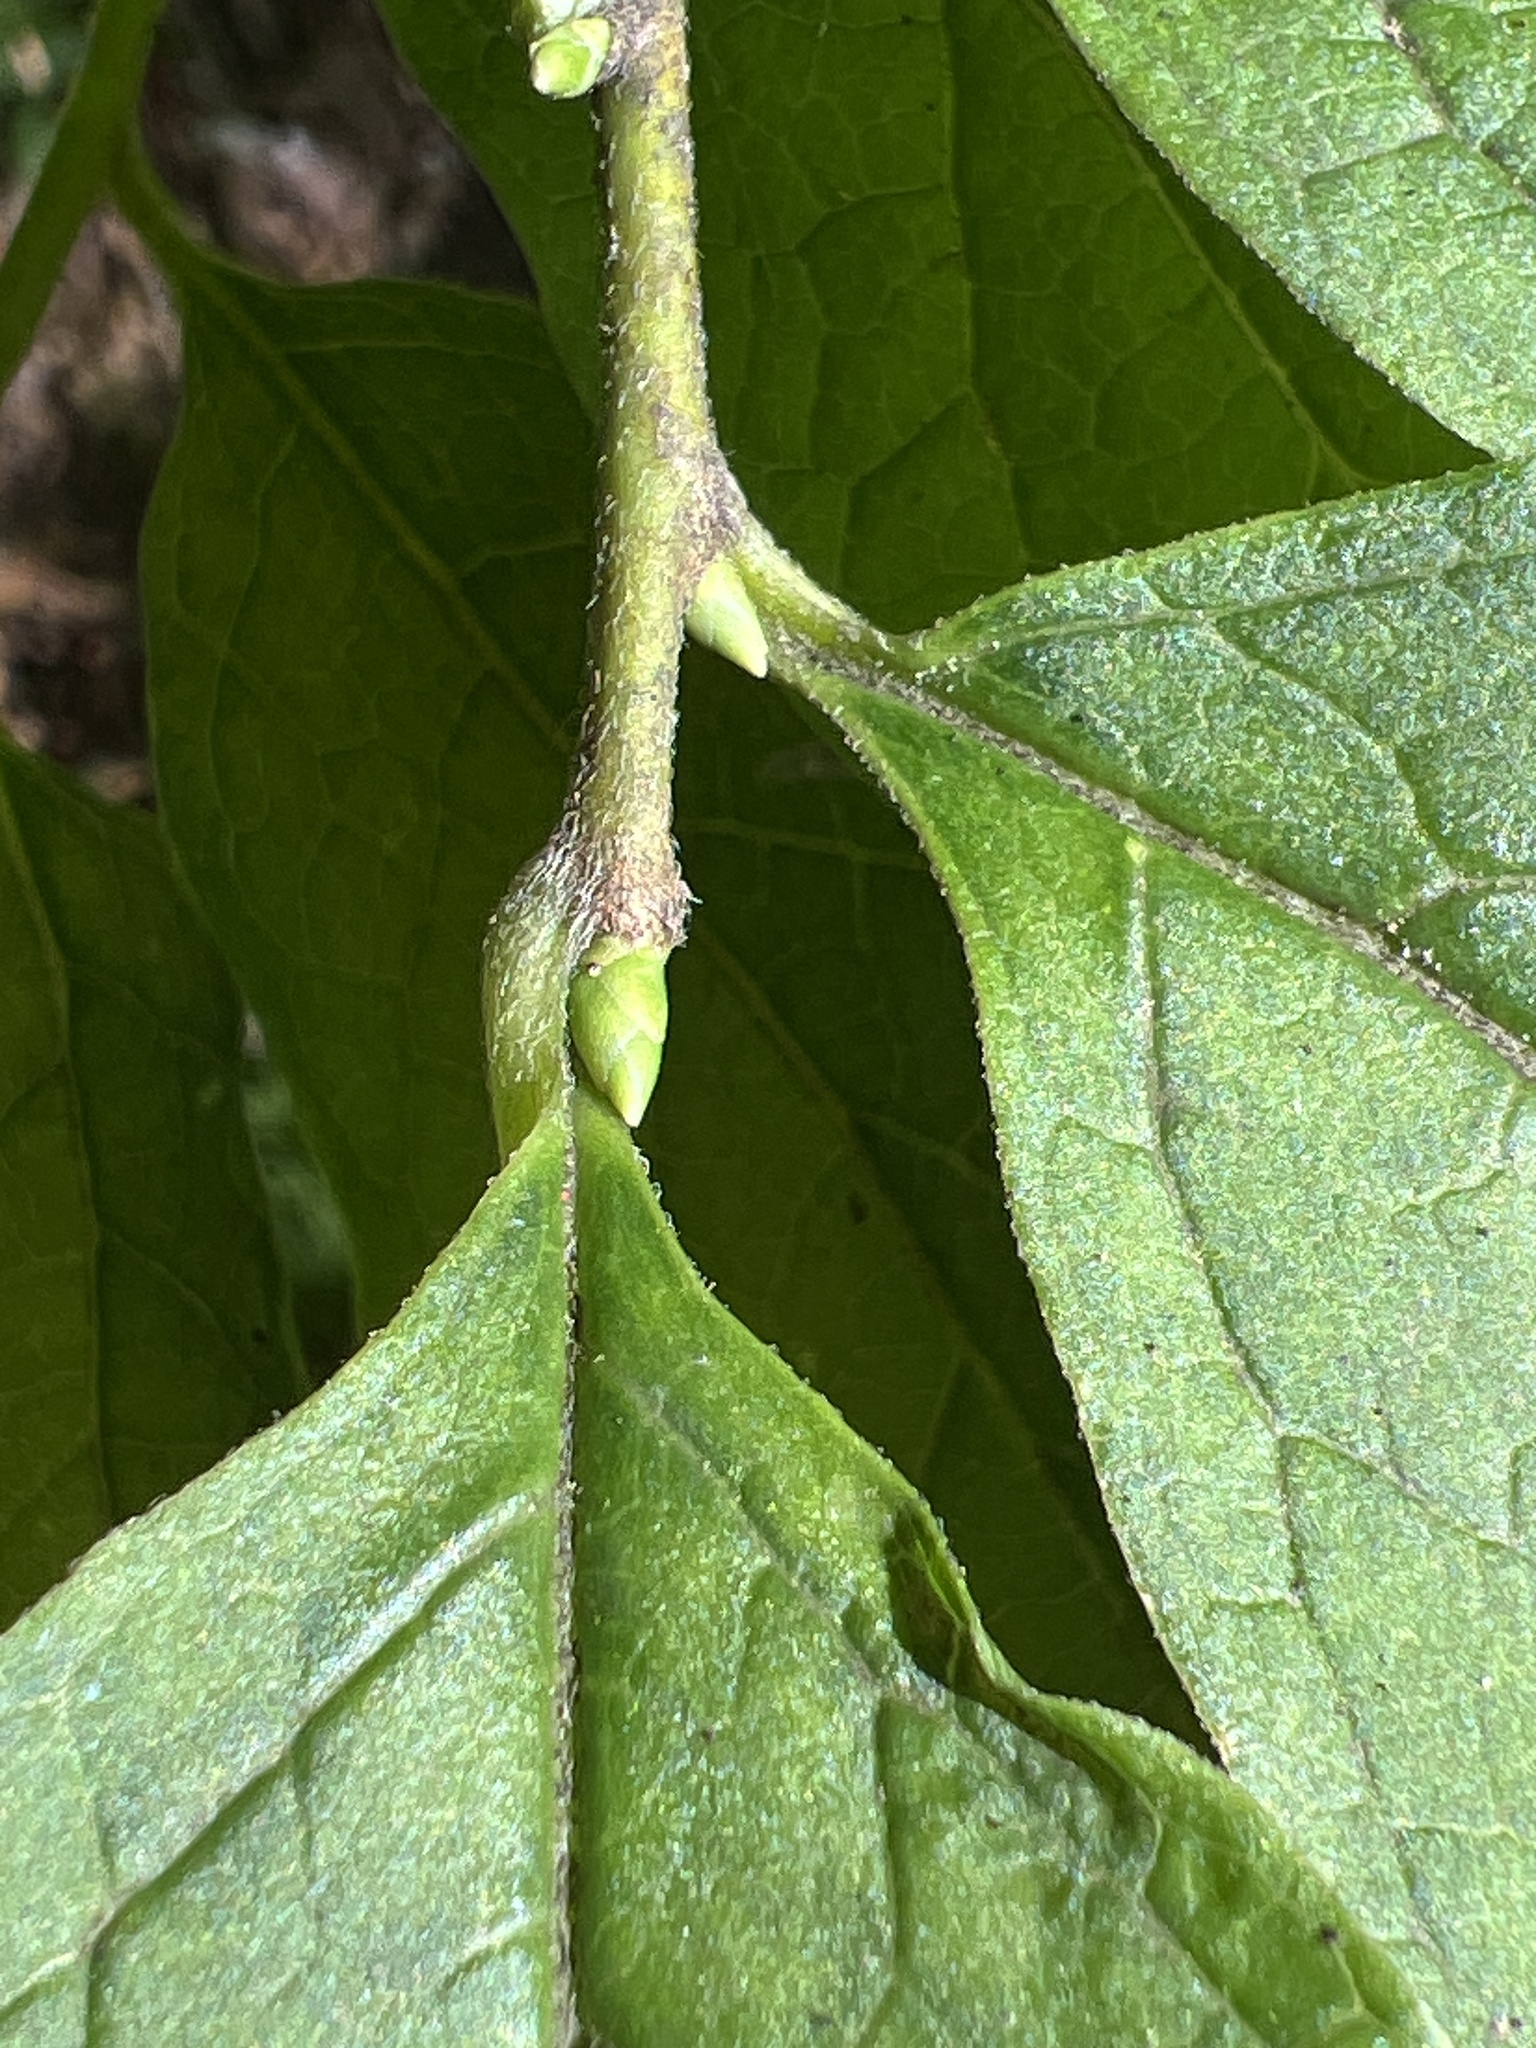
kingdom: Plantae
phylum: Tracheophyta
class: Magnoliopsida
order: Santalales
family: Cervantesiaceae
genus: Pyrularia
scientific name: Pyrularia pubera
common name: Oilnut
